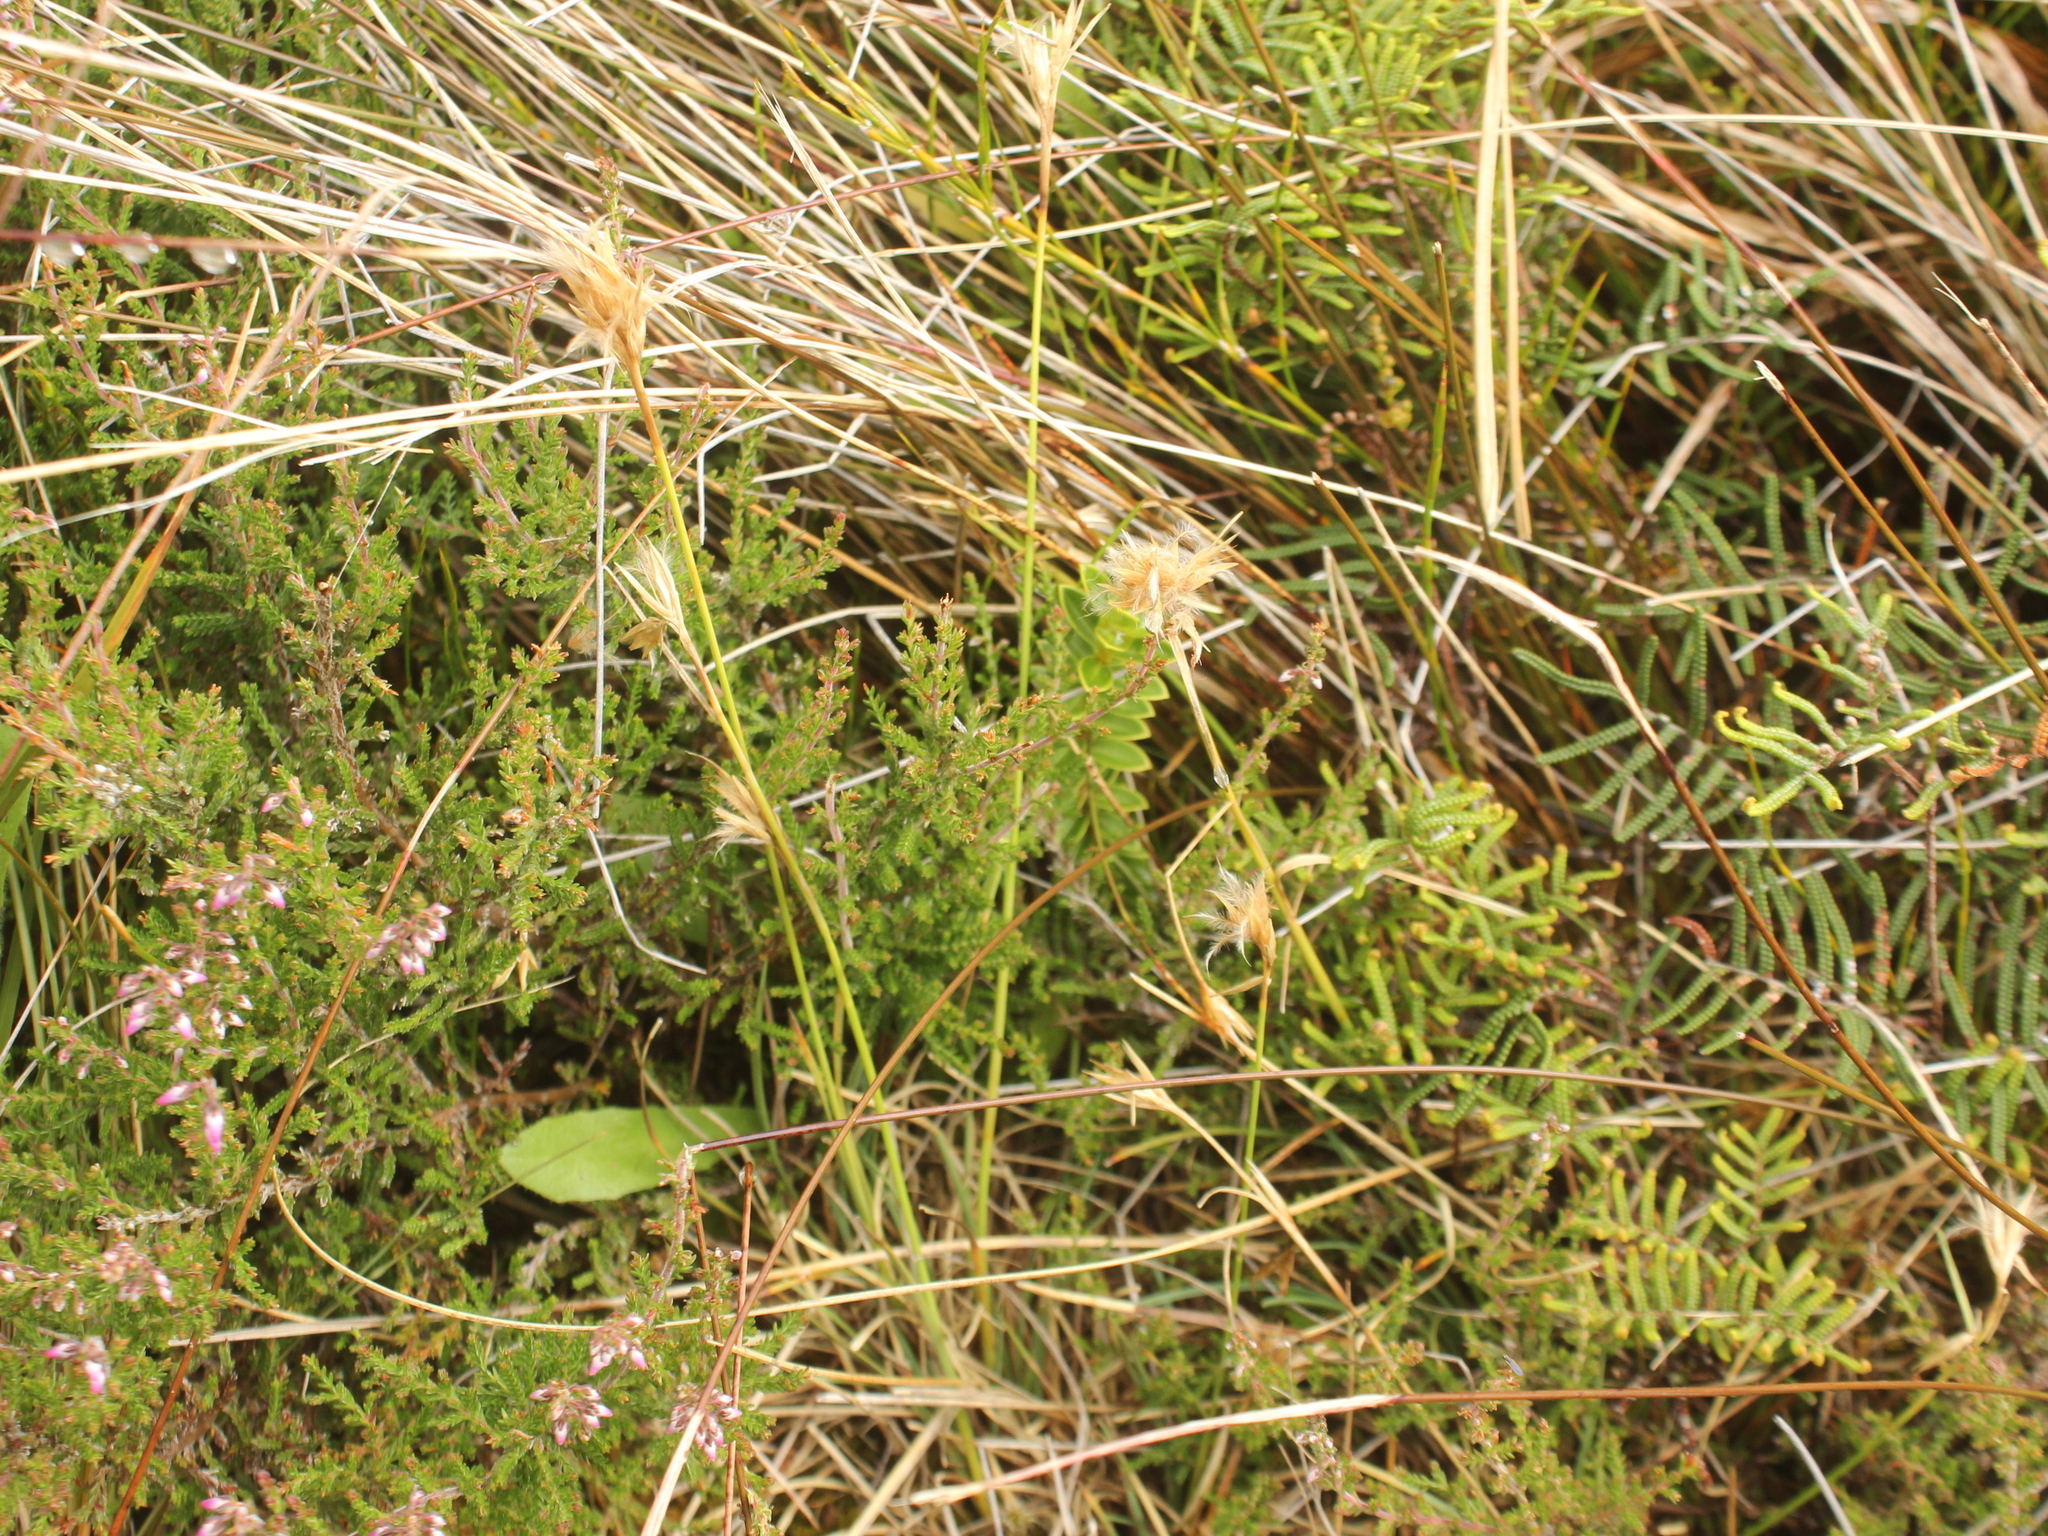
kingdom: Plantae
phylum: Tracheophyta
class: Liliopsida
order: Poales
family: Cyperaceae
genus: Carpha
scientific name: Carpha alpina
